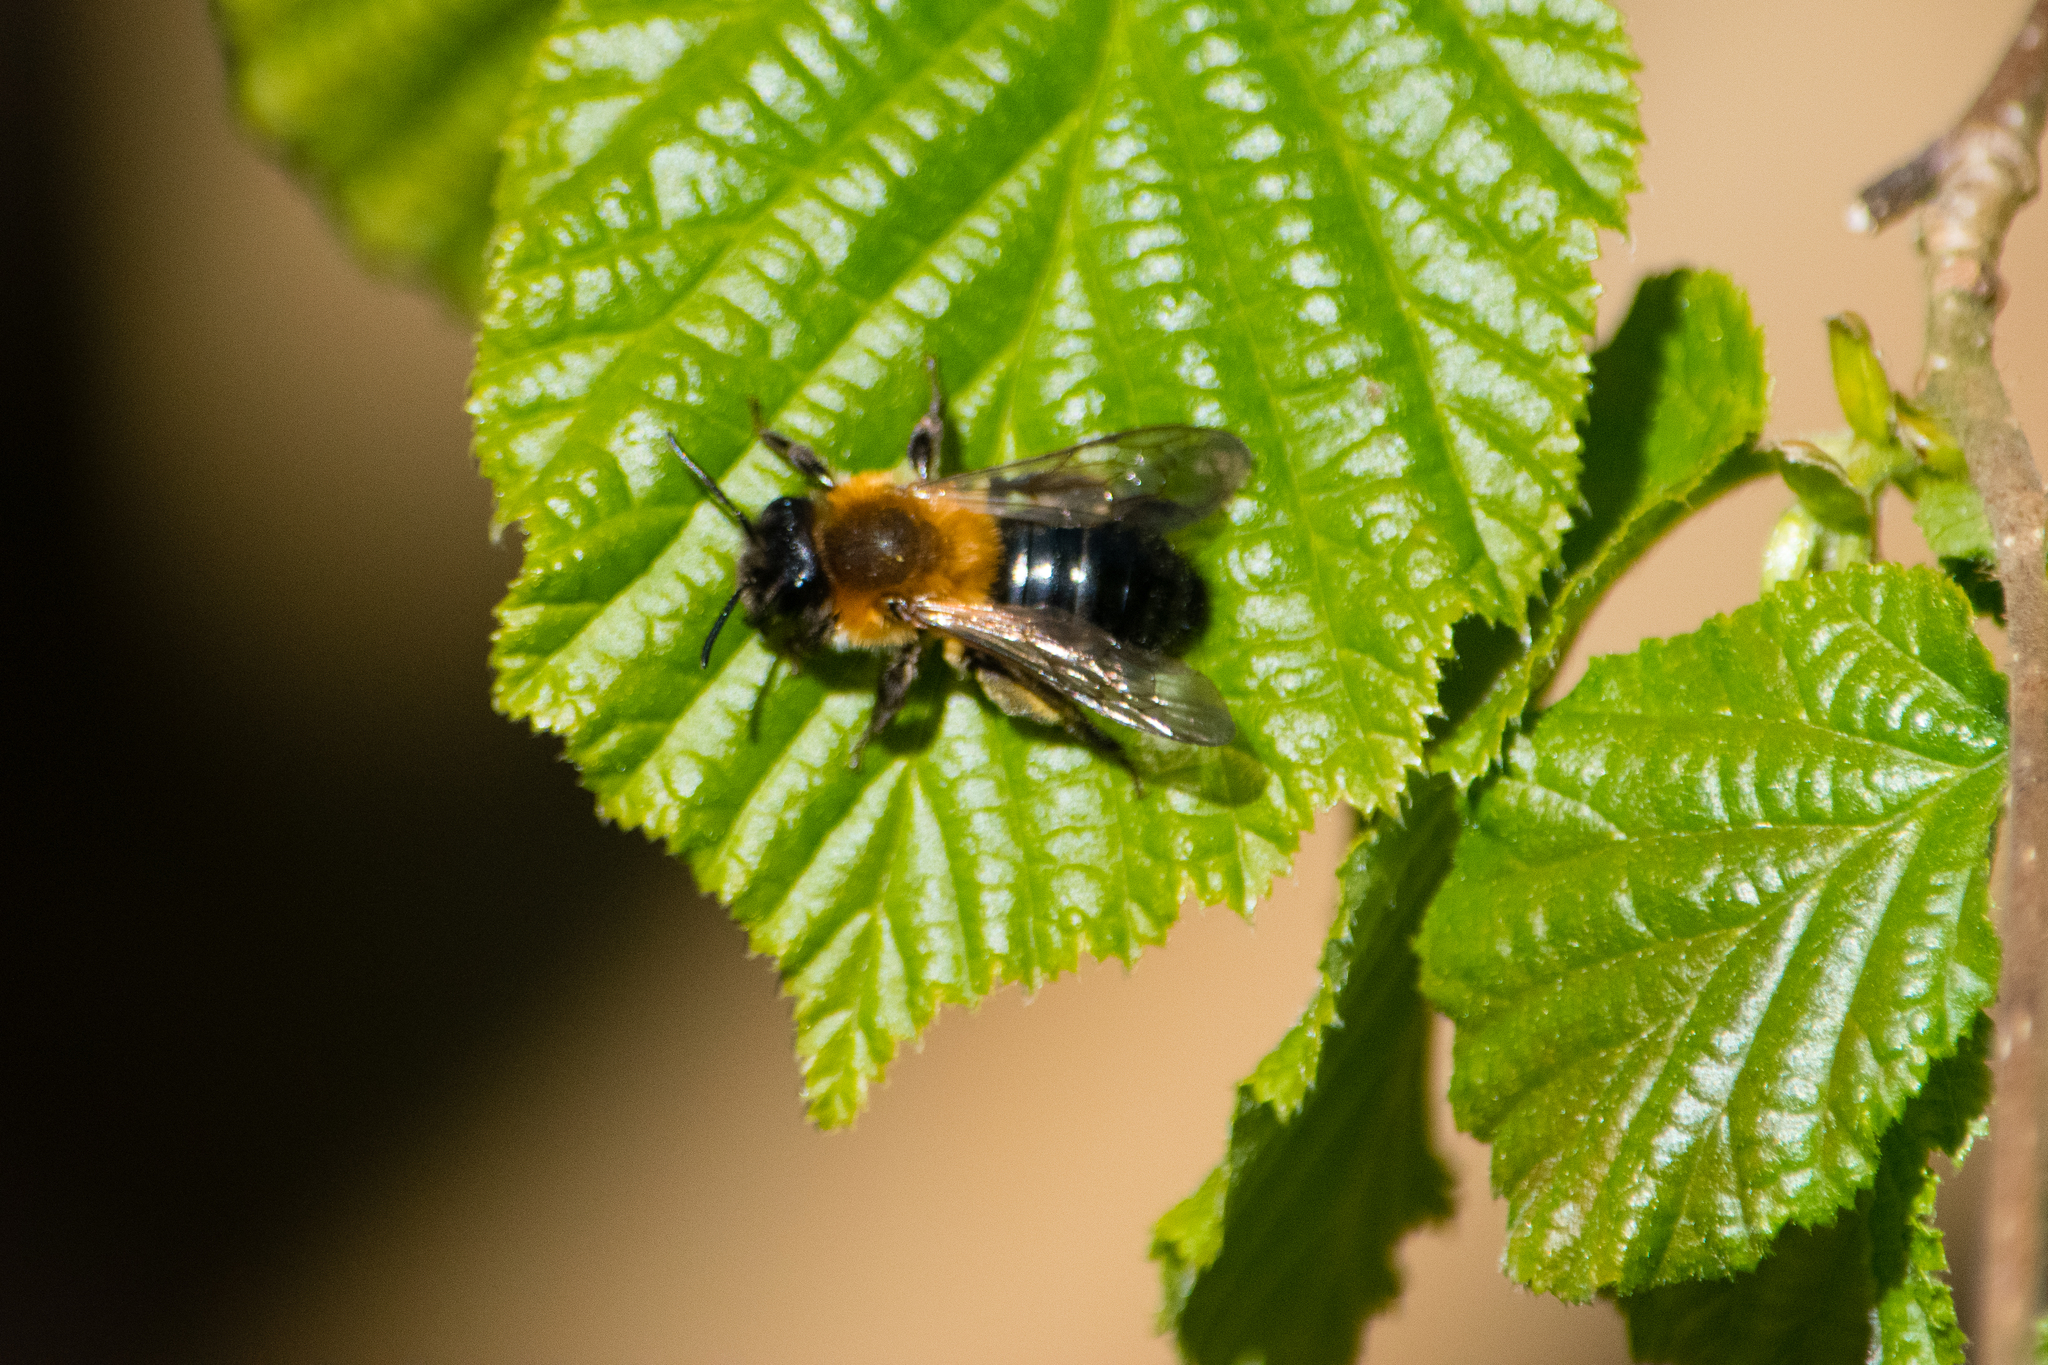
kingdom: Animalia
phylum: Arthropoda
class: Insecta
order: Hymenoptera
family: Andrenidae
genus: Andrena
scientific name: Andrena nitida
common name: Grey-patched mining bee
